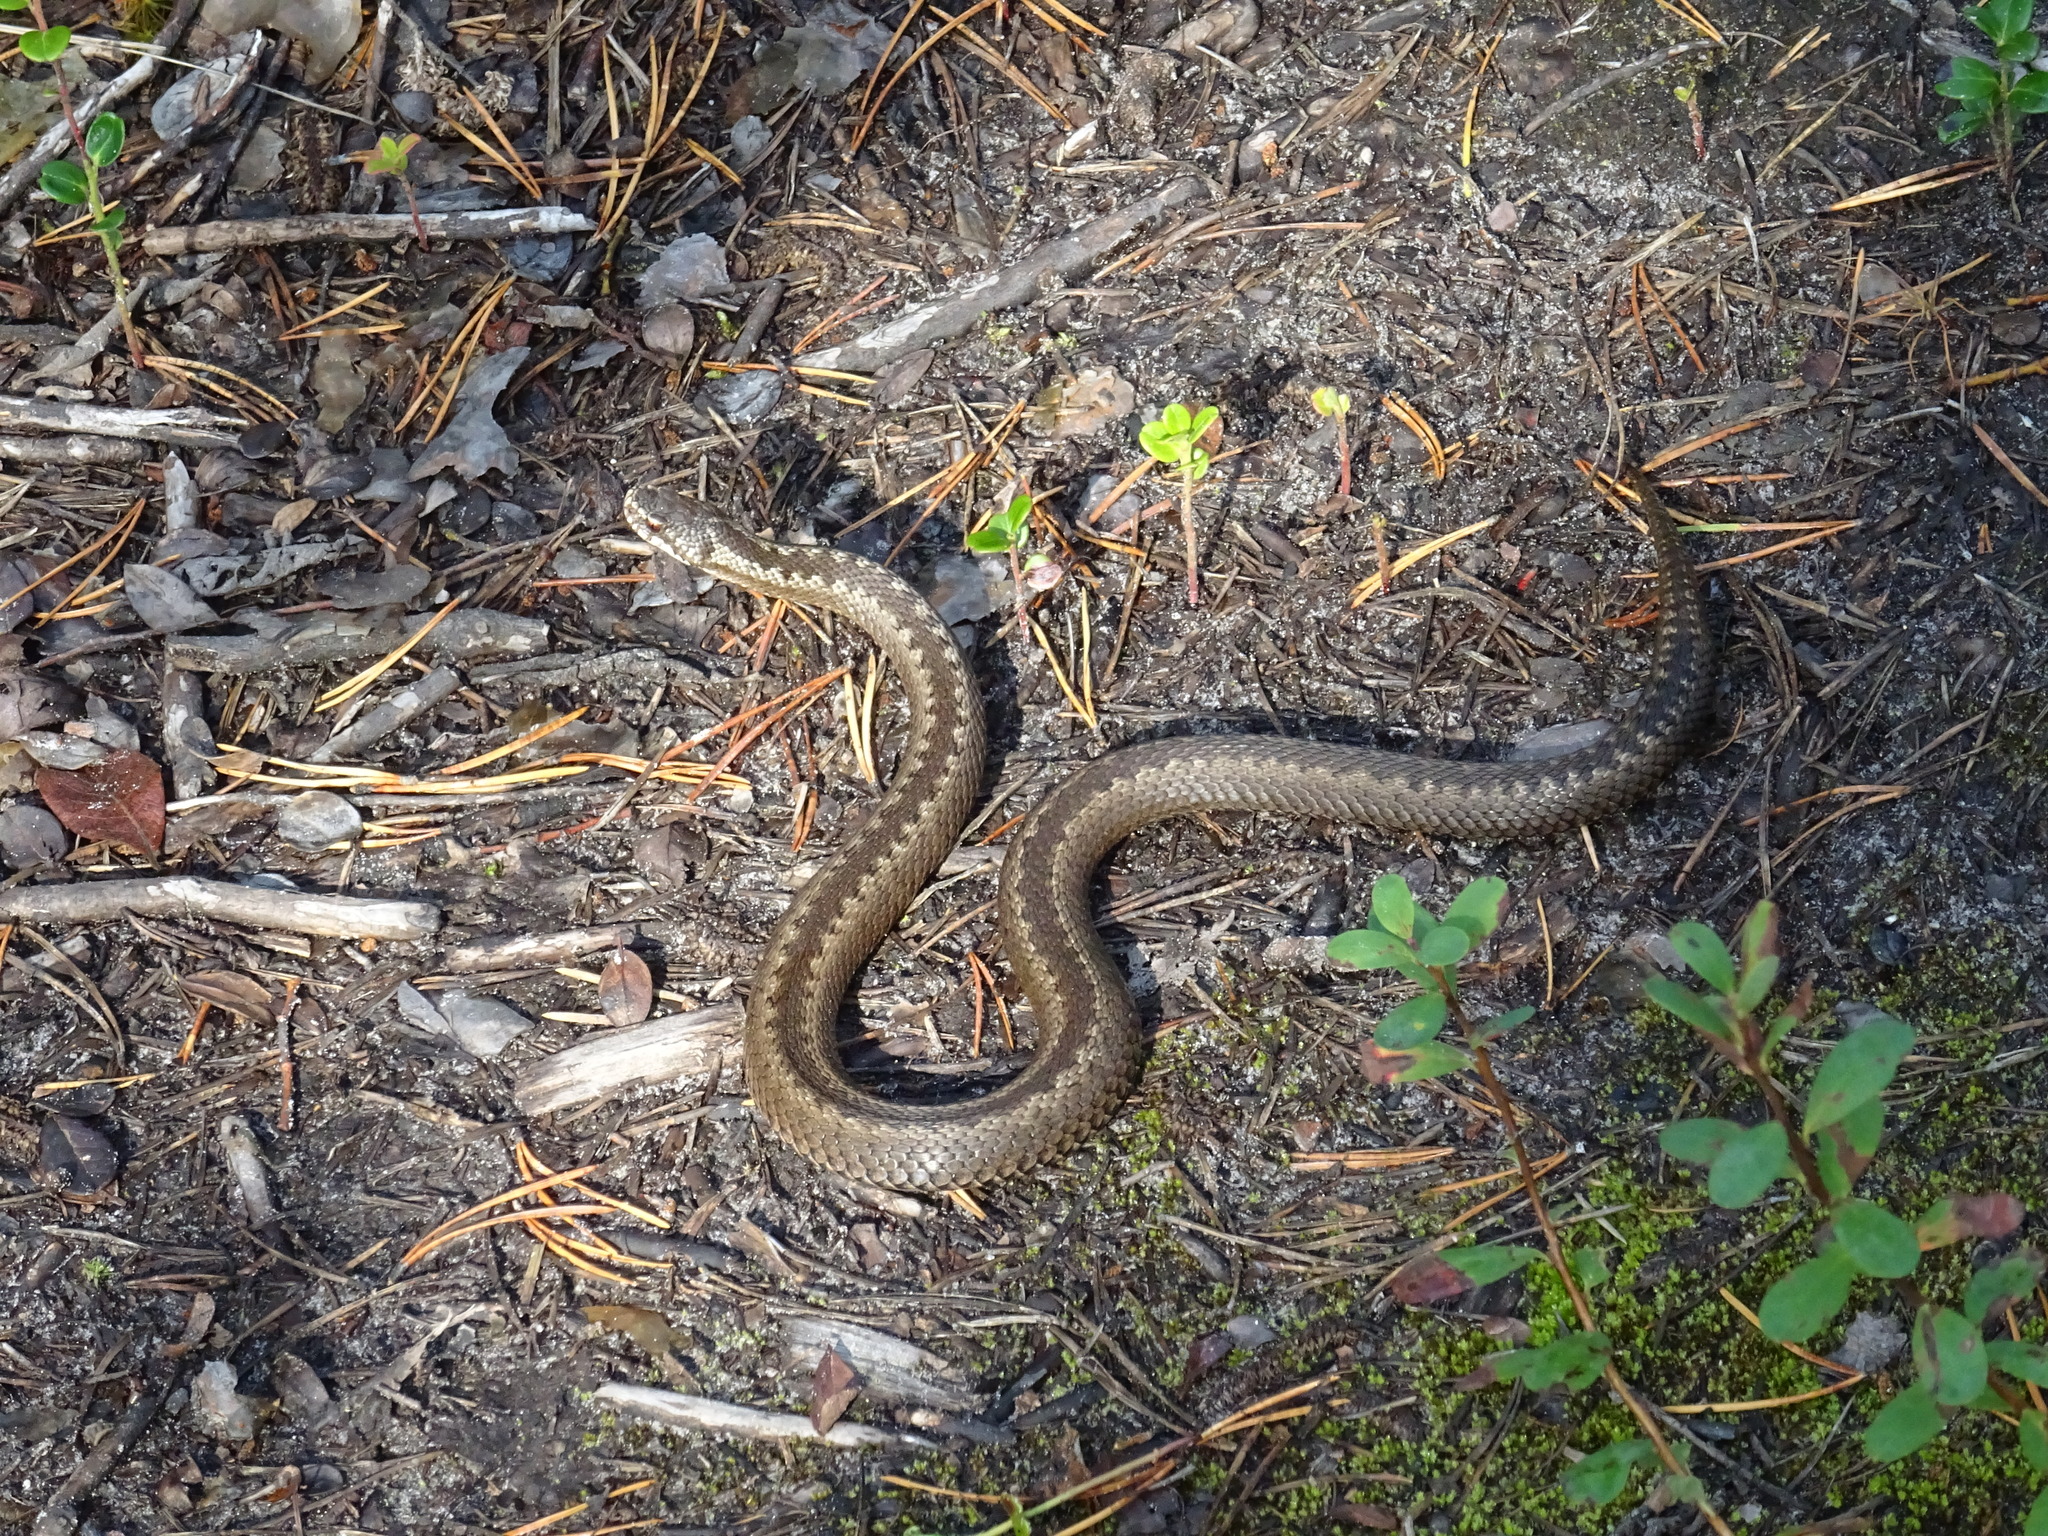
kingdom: Animalia
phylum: Chordata
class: Squamata
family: Viperidae
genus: Vipera
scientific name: Vipera berus
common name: Adder
